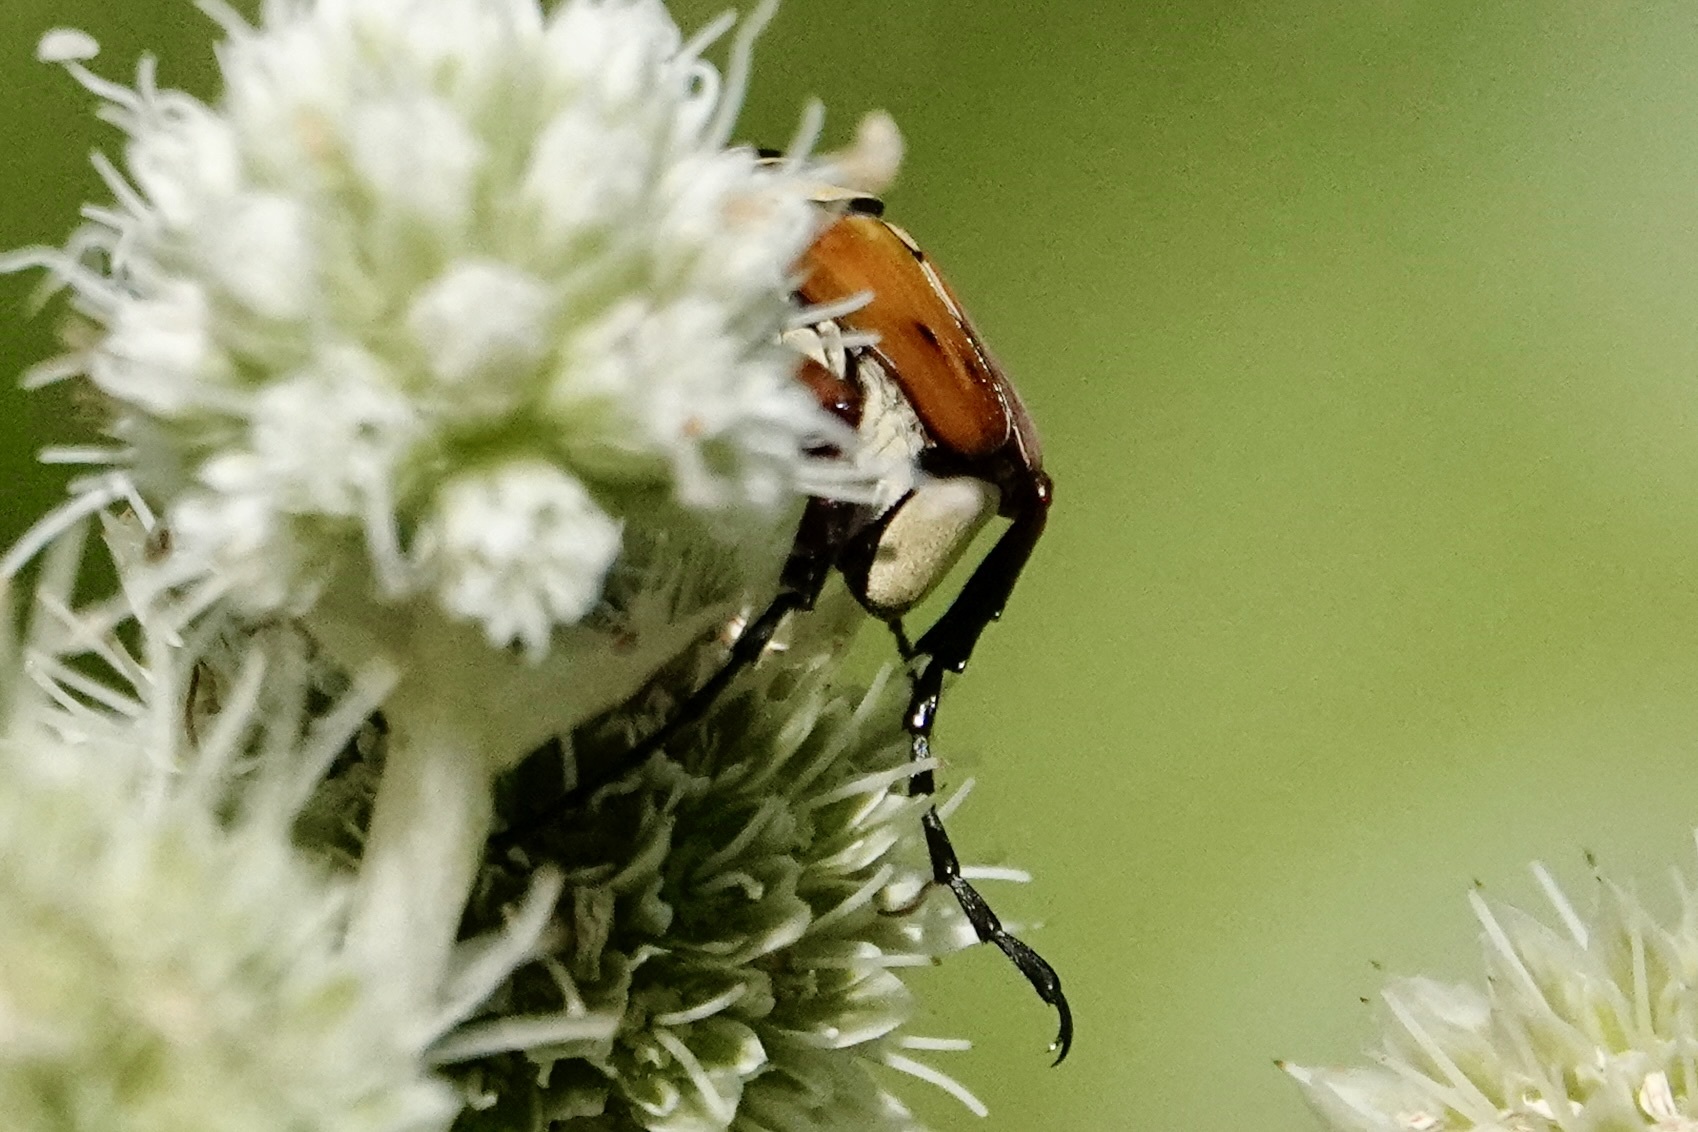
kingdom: Animalia
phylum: Arthropoda
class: Insecta
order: Coleoptera
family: Scarabaeidae
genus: Trigonopeltastes
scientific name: Trigonopeltastes delta
